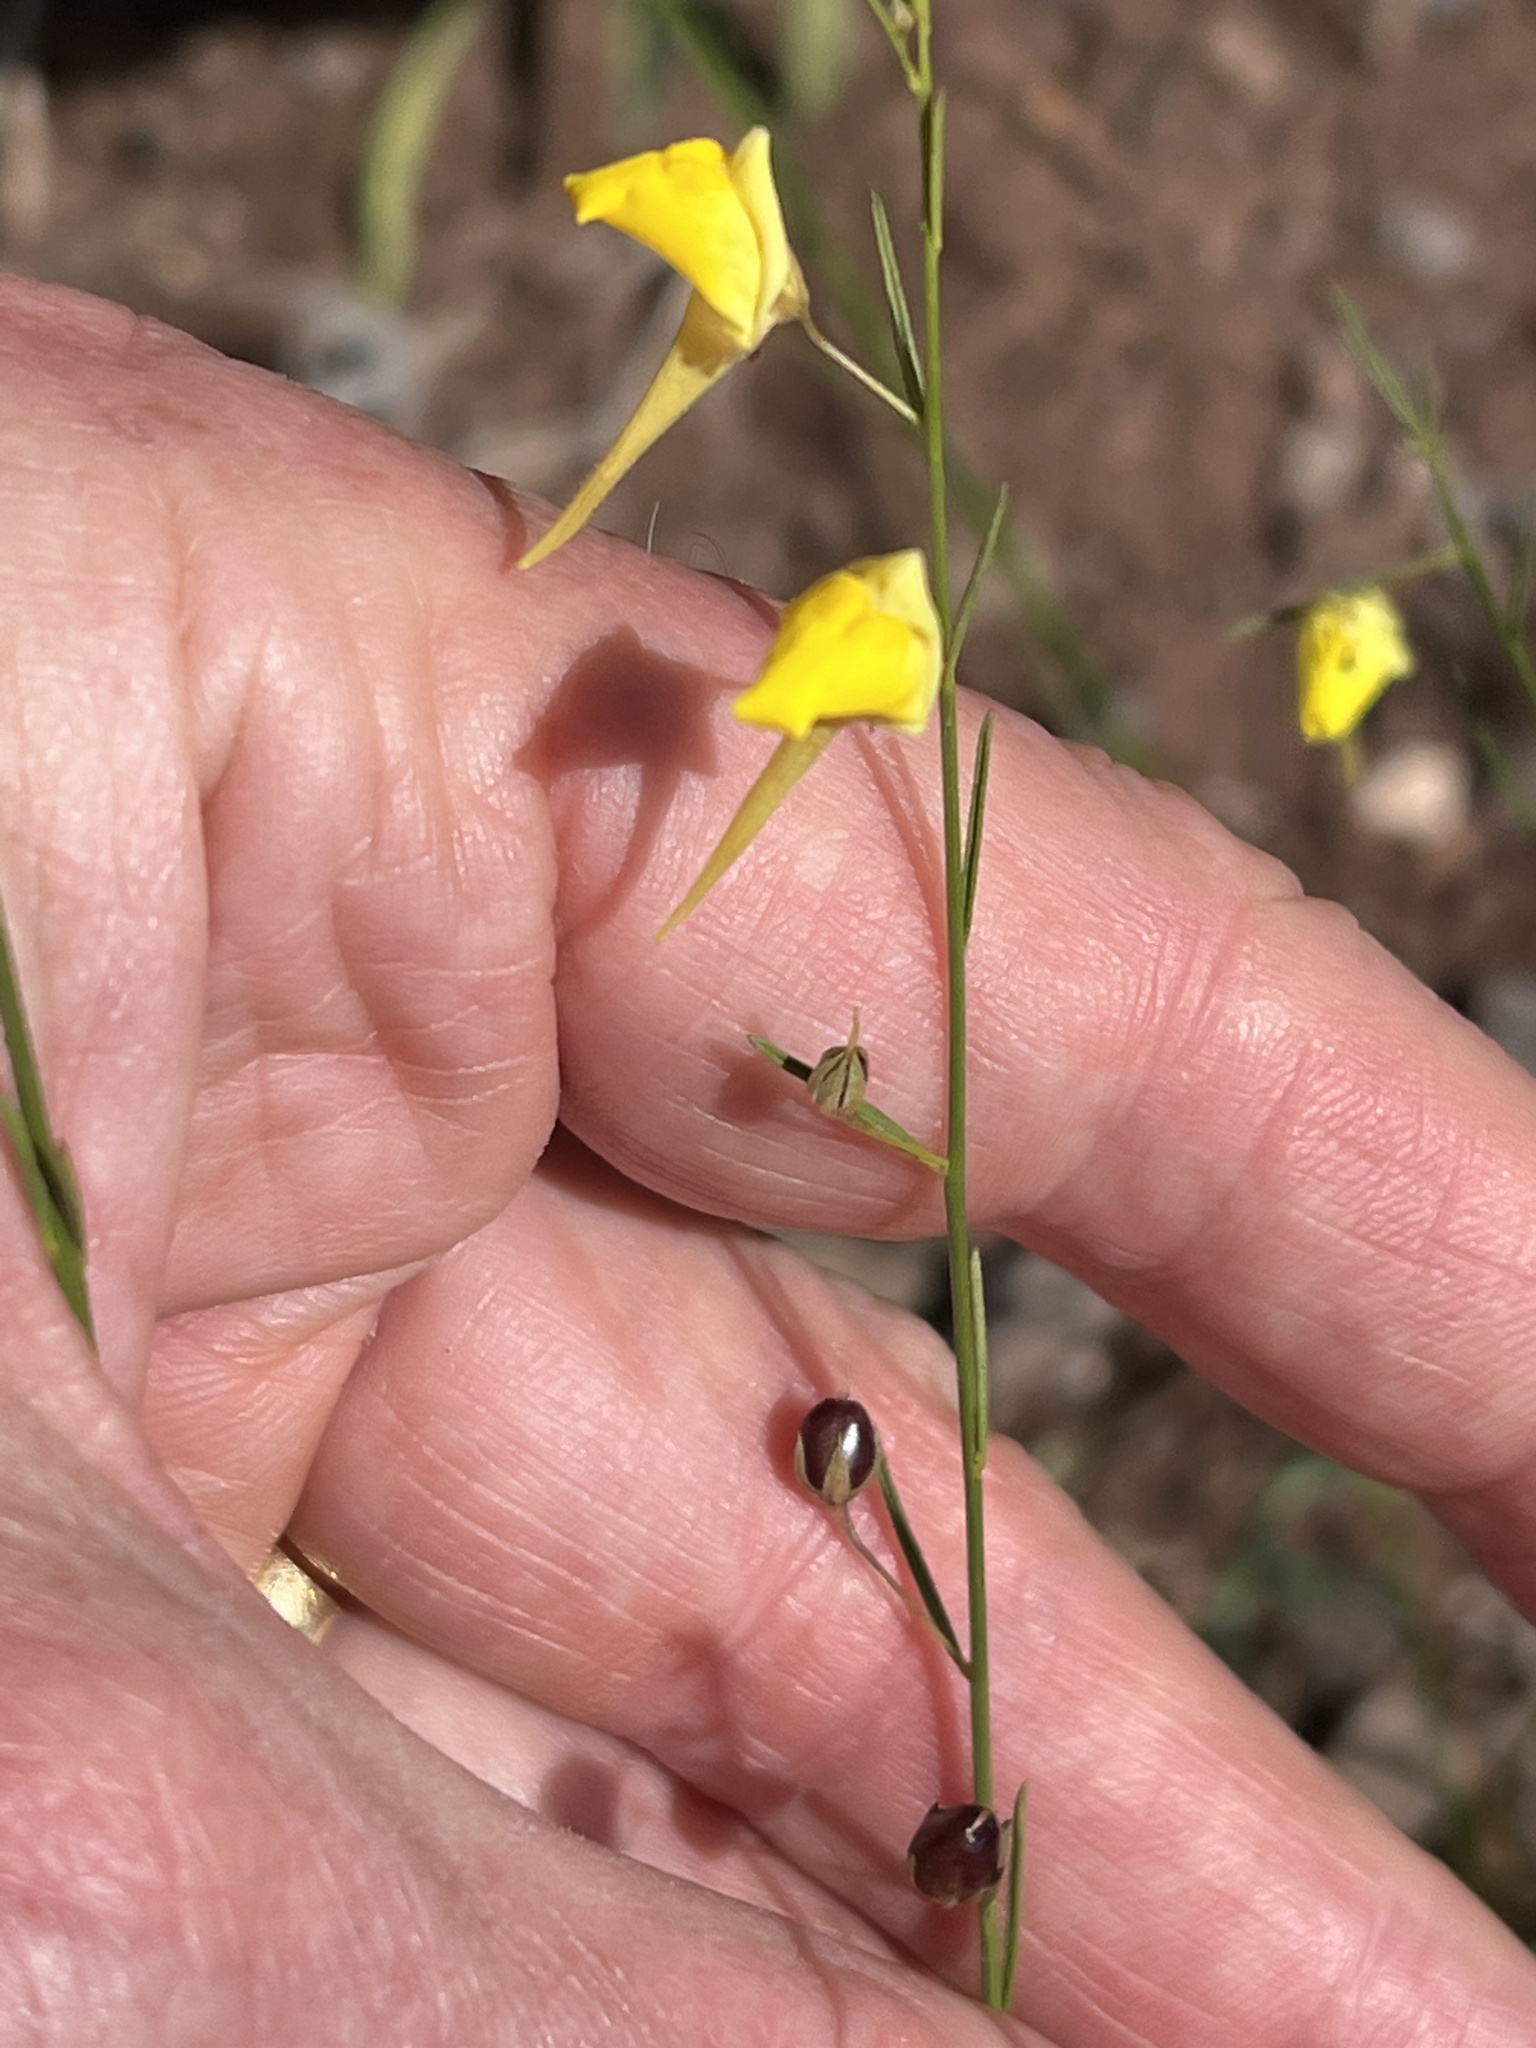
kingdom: Plantae
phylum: Tracheophyta
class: Magnoliopsida
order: Lamiales
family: Plantaginaceae
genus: Nanorrhinum
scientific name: Nanorrhinum scoparium
